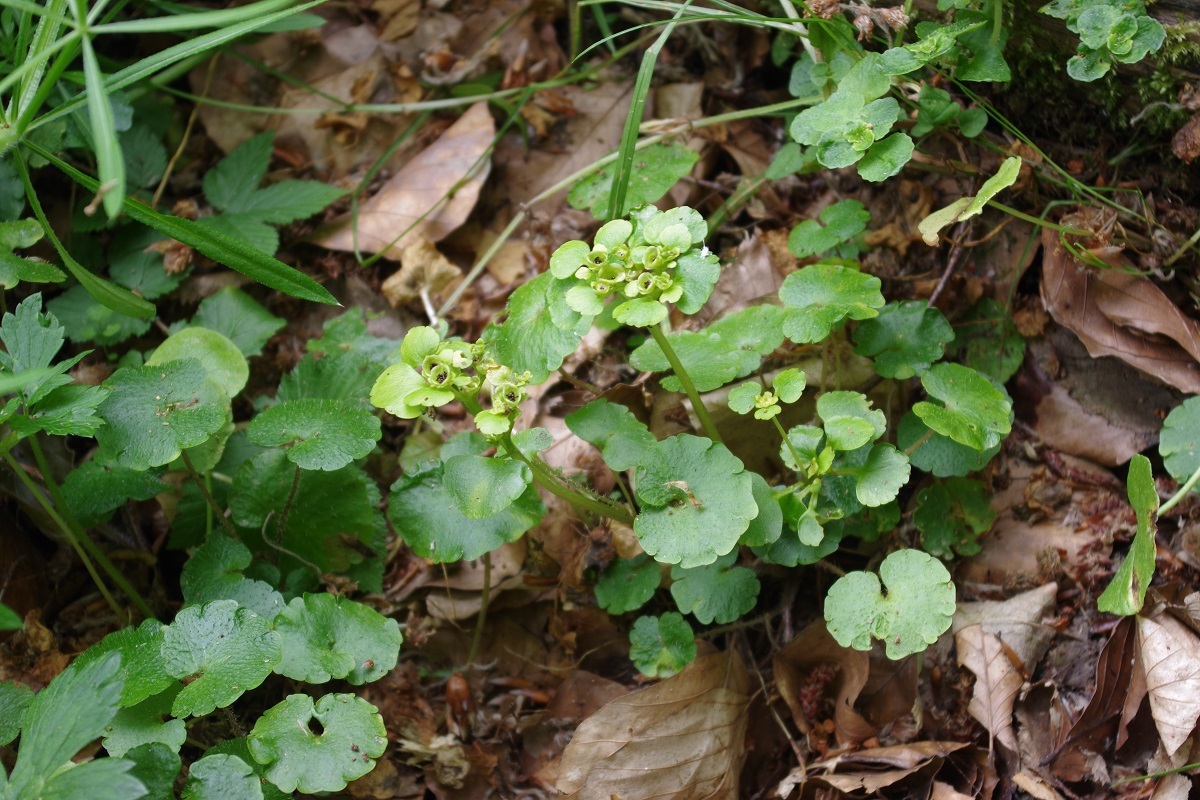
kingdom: Plantae
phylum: Tracheophyta
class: Magnoliopsida
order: Saxifragales
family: Saxifragaceae
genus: Chrysosplenium
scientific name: Chrysosplenium alternifolium
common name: Alternate-leaved golden-saxifrage
